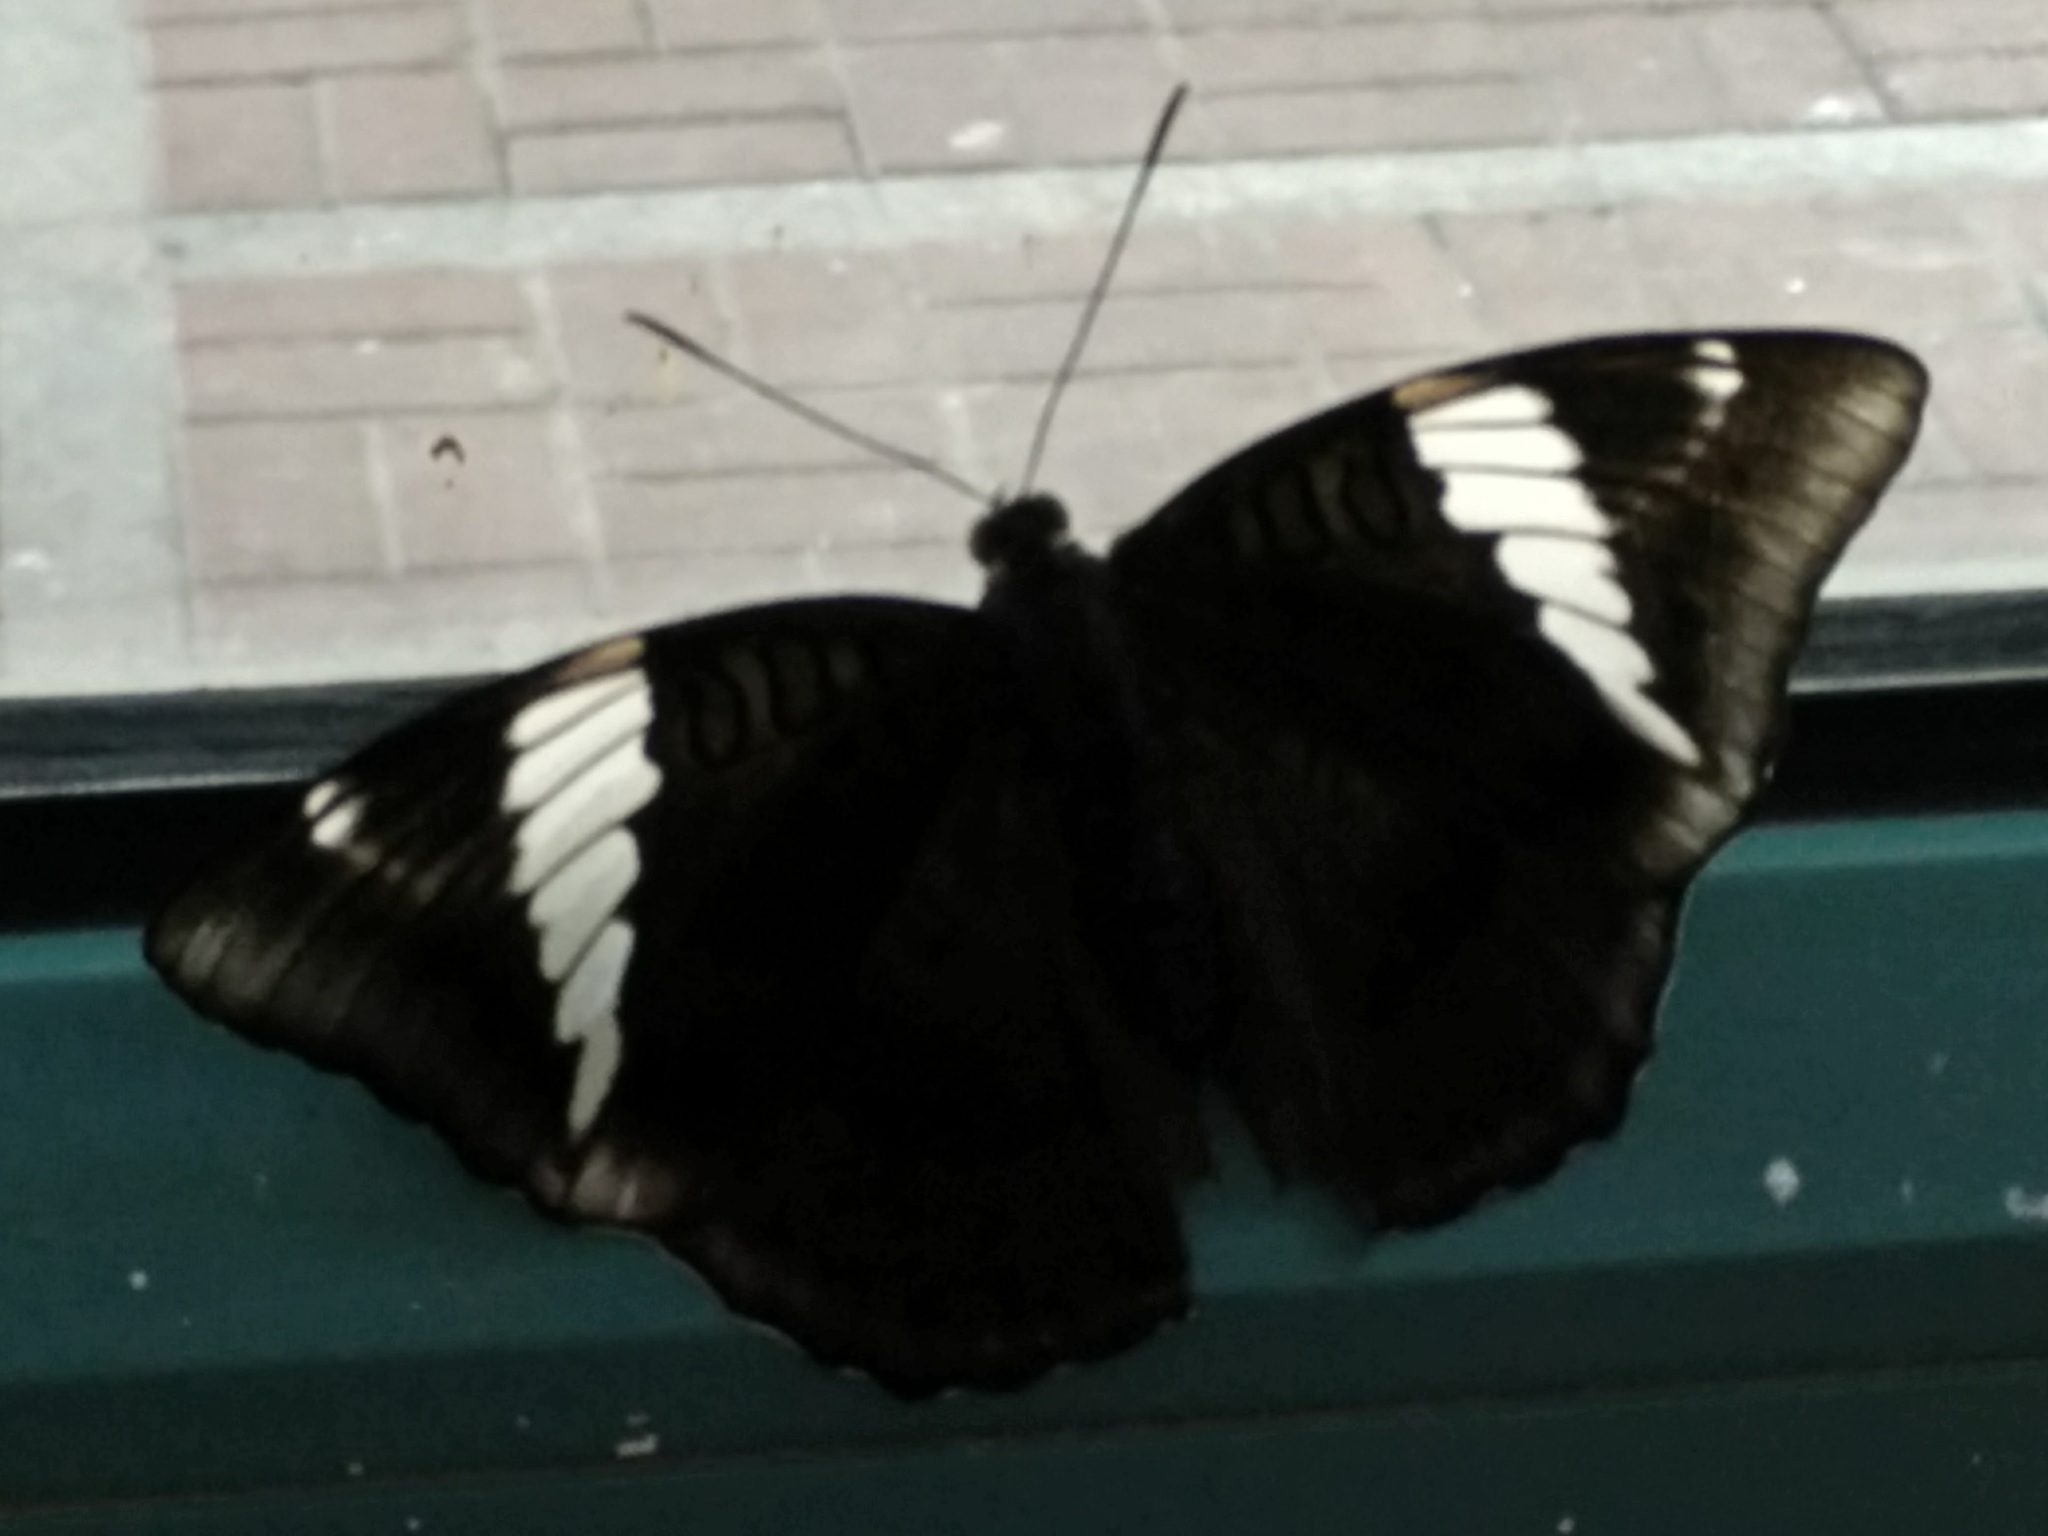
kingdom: Animalia
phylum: Arthropoda
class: Insecta
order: Lepidoptera
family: Nymphalidae
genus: Euthalia
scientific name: Euthalia phemius
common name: White-edged blue baron
